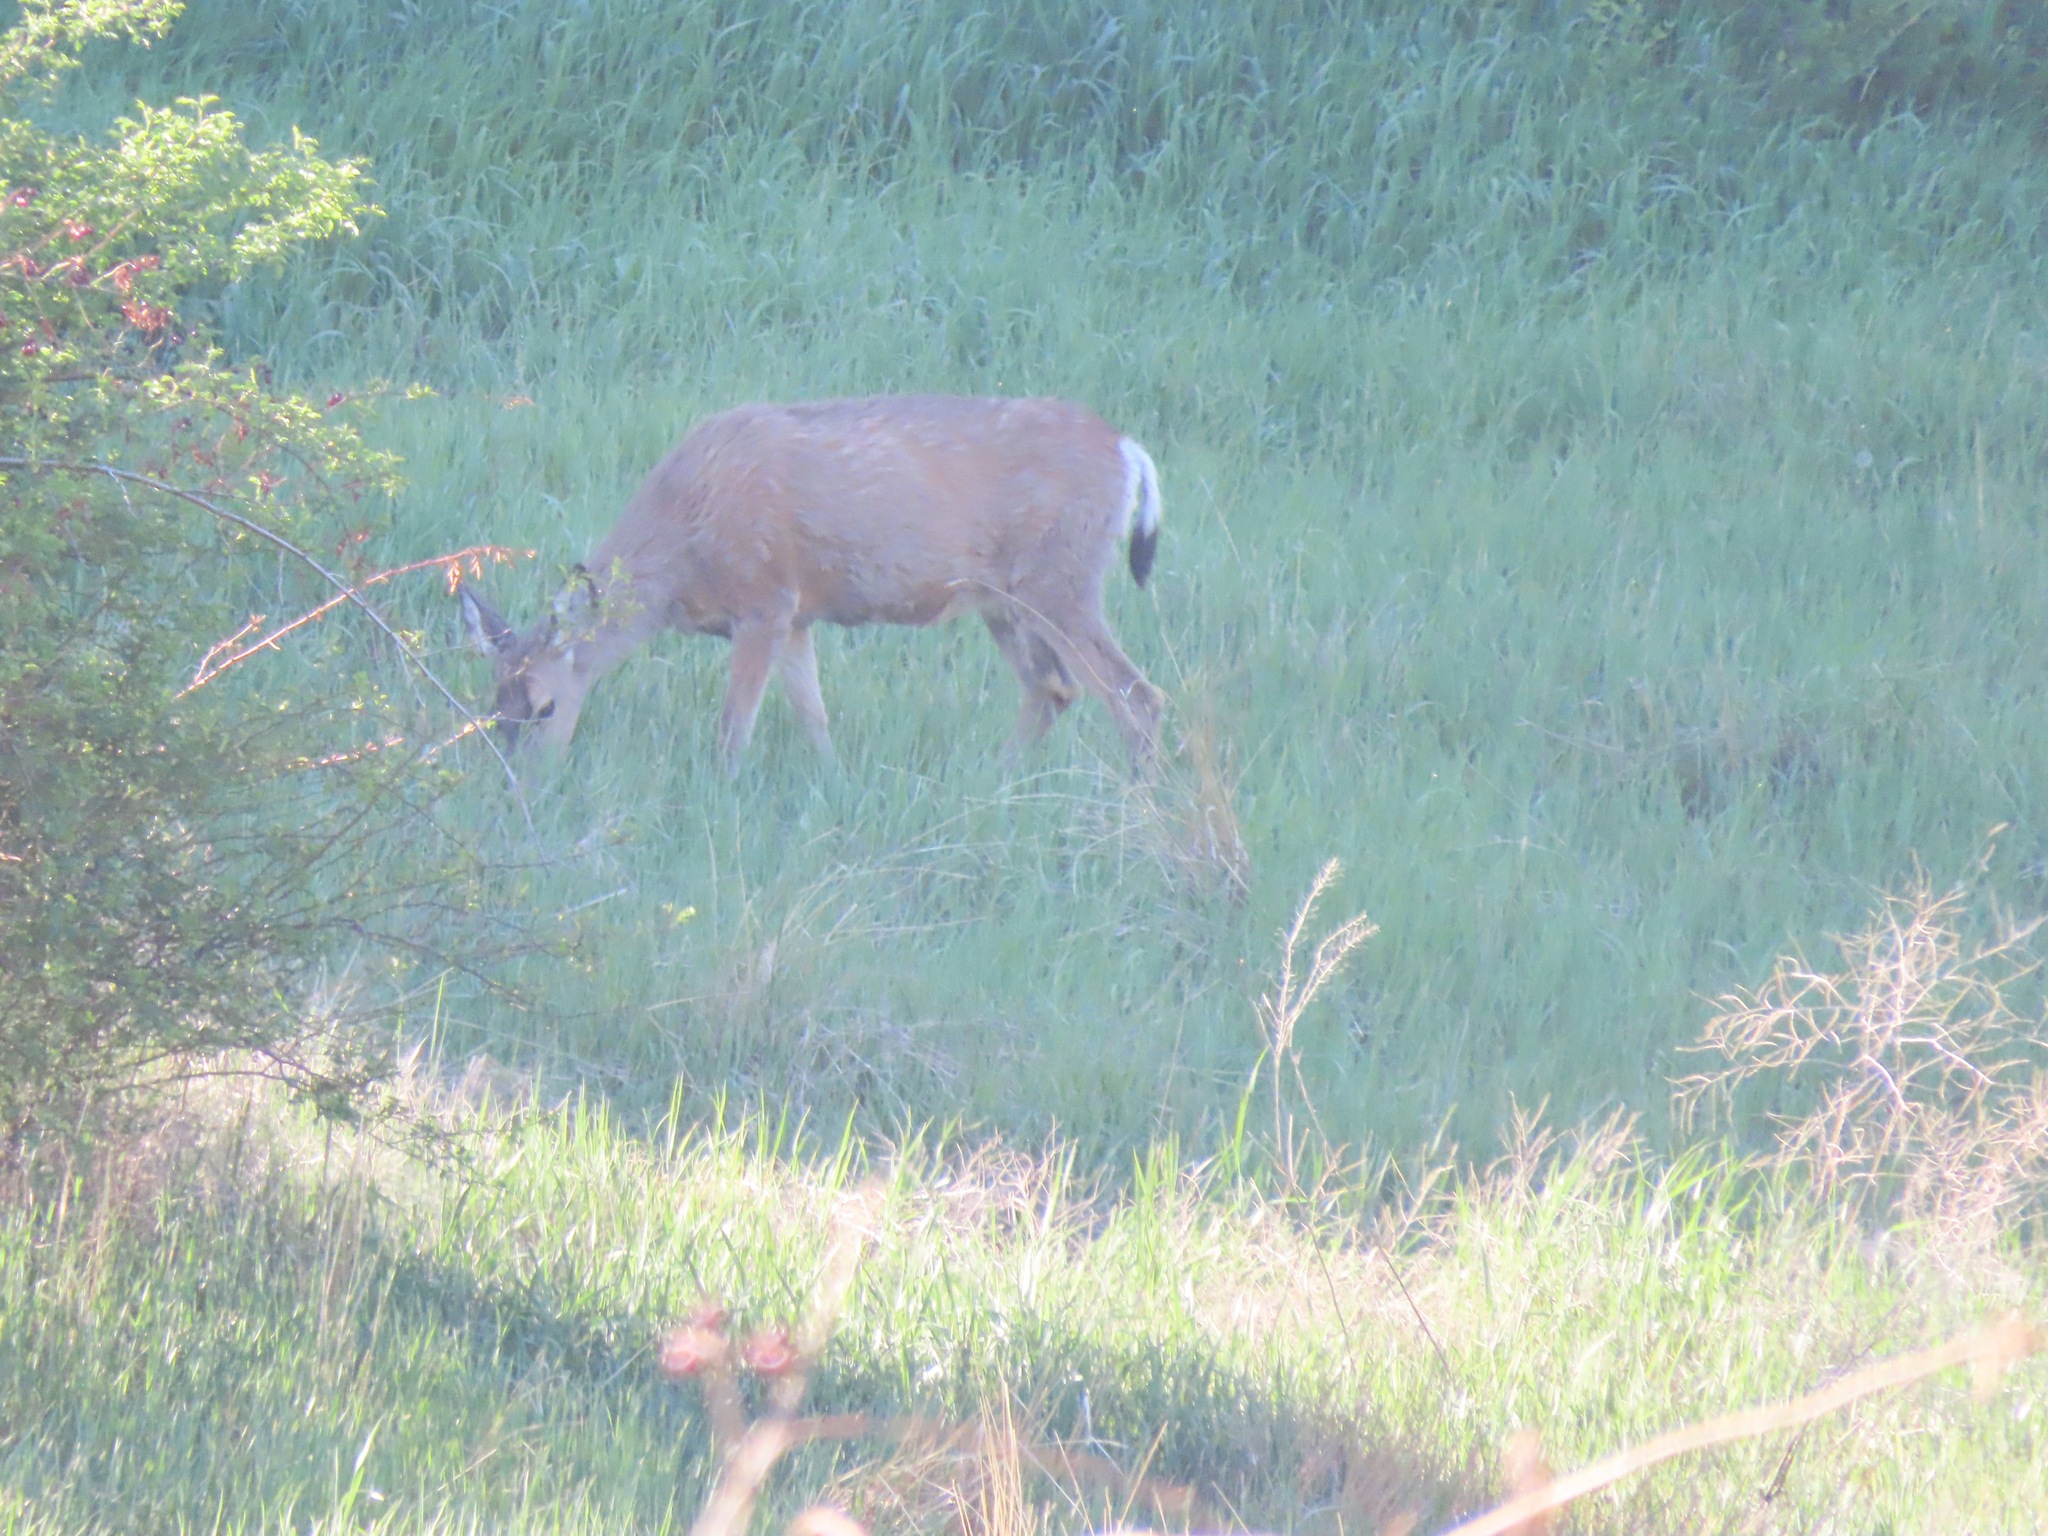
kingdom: Animalia
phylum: Chordata
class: Mammalia
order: Artiodactyla
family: Cervidae
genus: Odocoileus
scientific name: Odocoileus hemionus
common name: Mule deer
